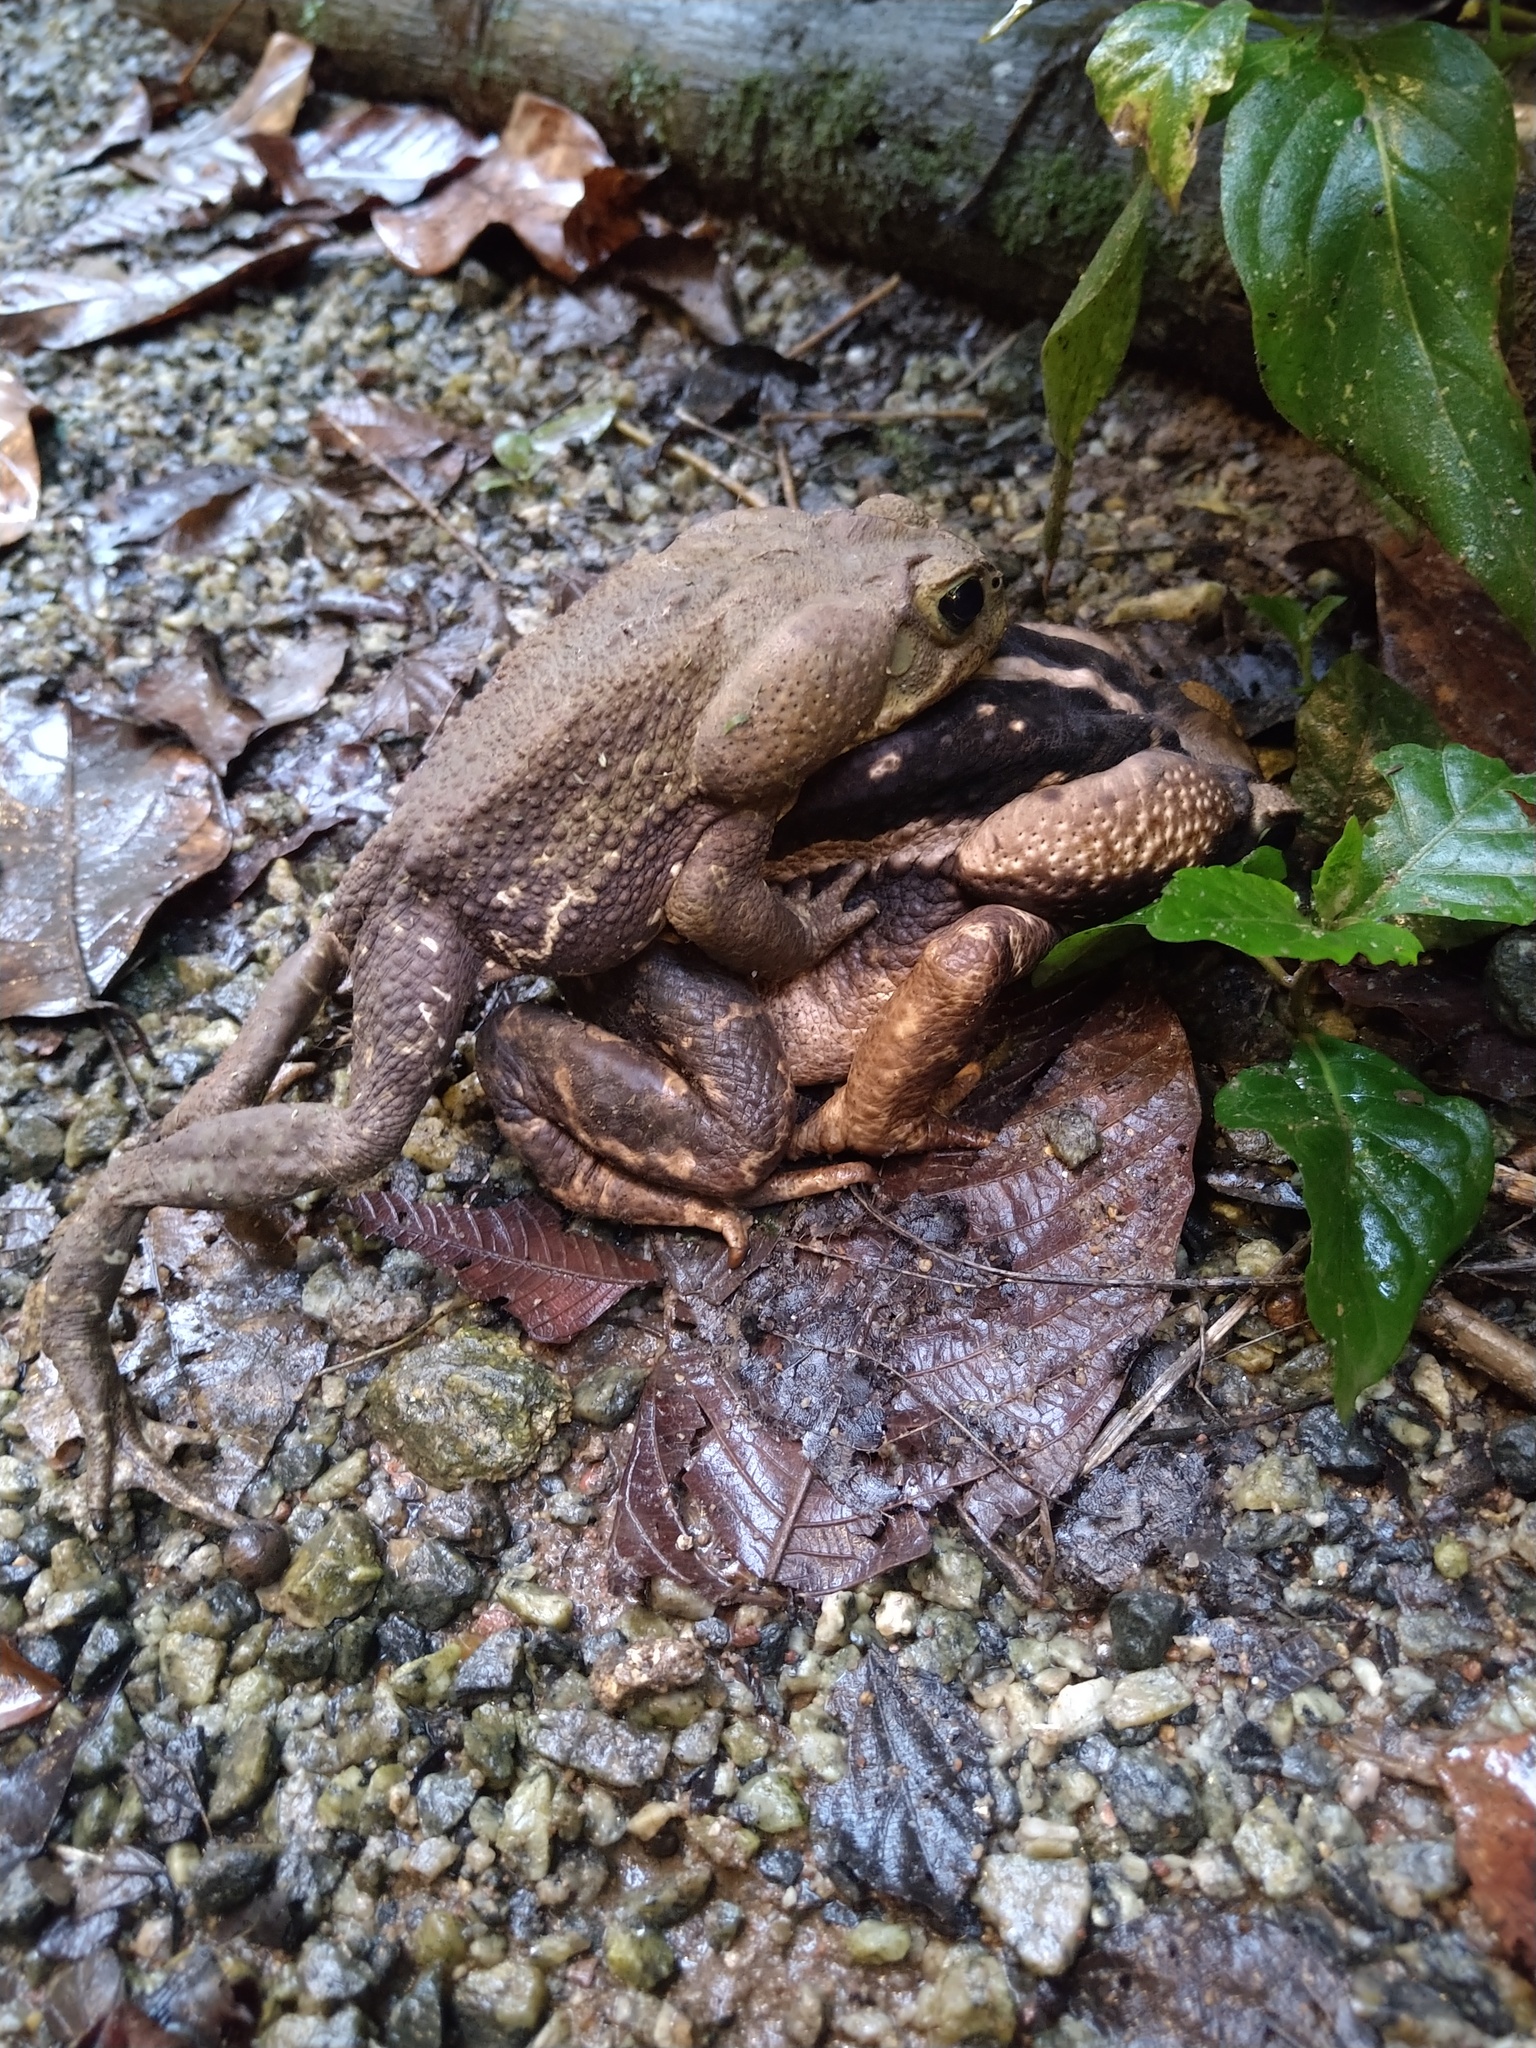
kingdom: Animalia
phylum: Chordata
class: Amphibia
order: Anura
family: Bufonidae
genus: Rhinella
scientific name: Rhinella icterica
